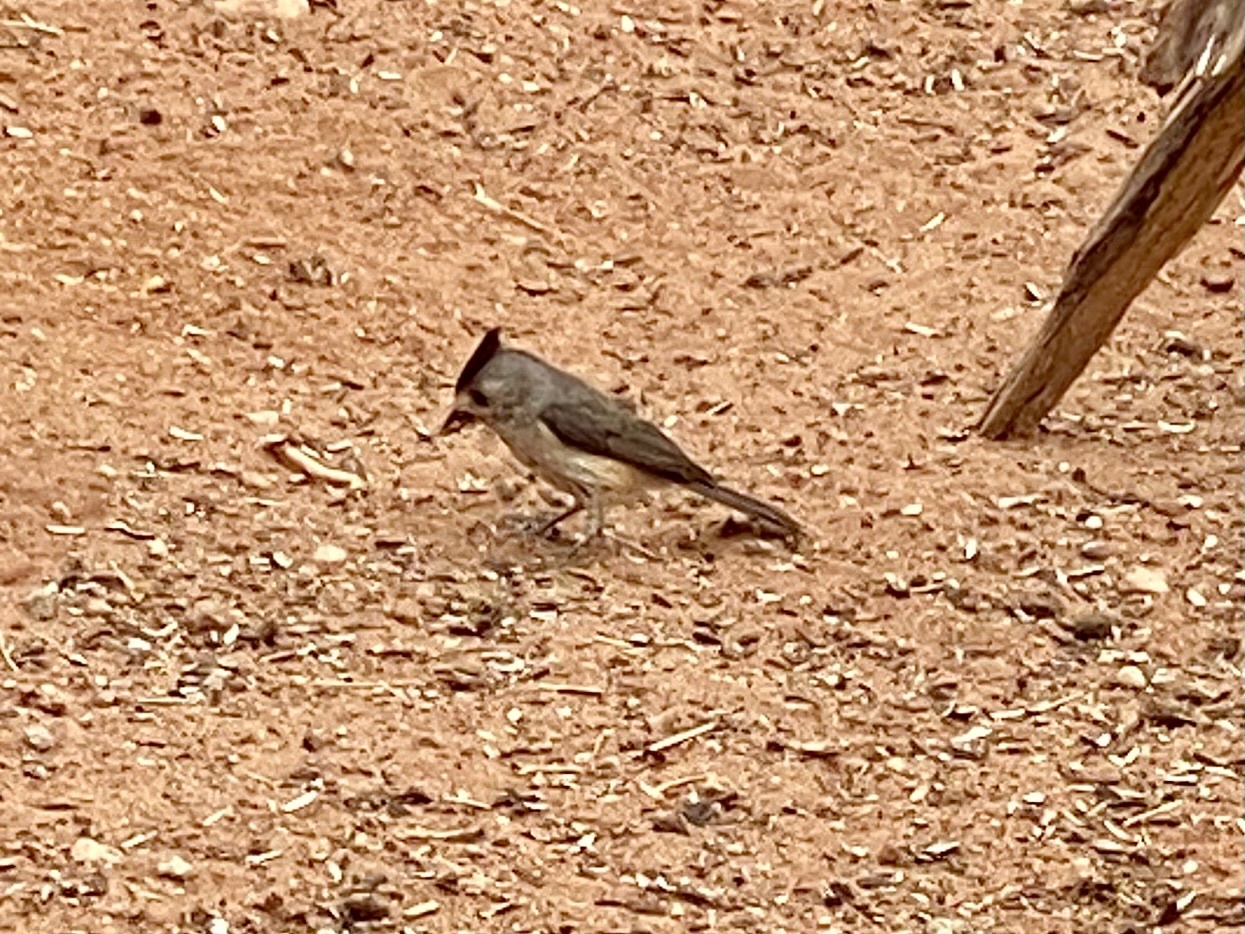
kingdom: Animalia
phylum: Chordata
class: Aves
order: Passeriformes
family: Paridae
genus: Baeolophus
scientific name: Baeolophus atricristatus
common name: Black-crested titmouse
